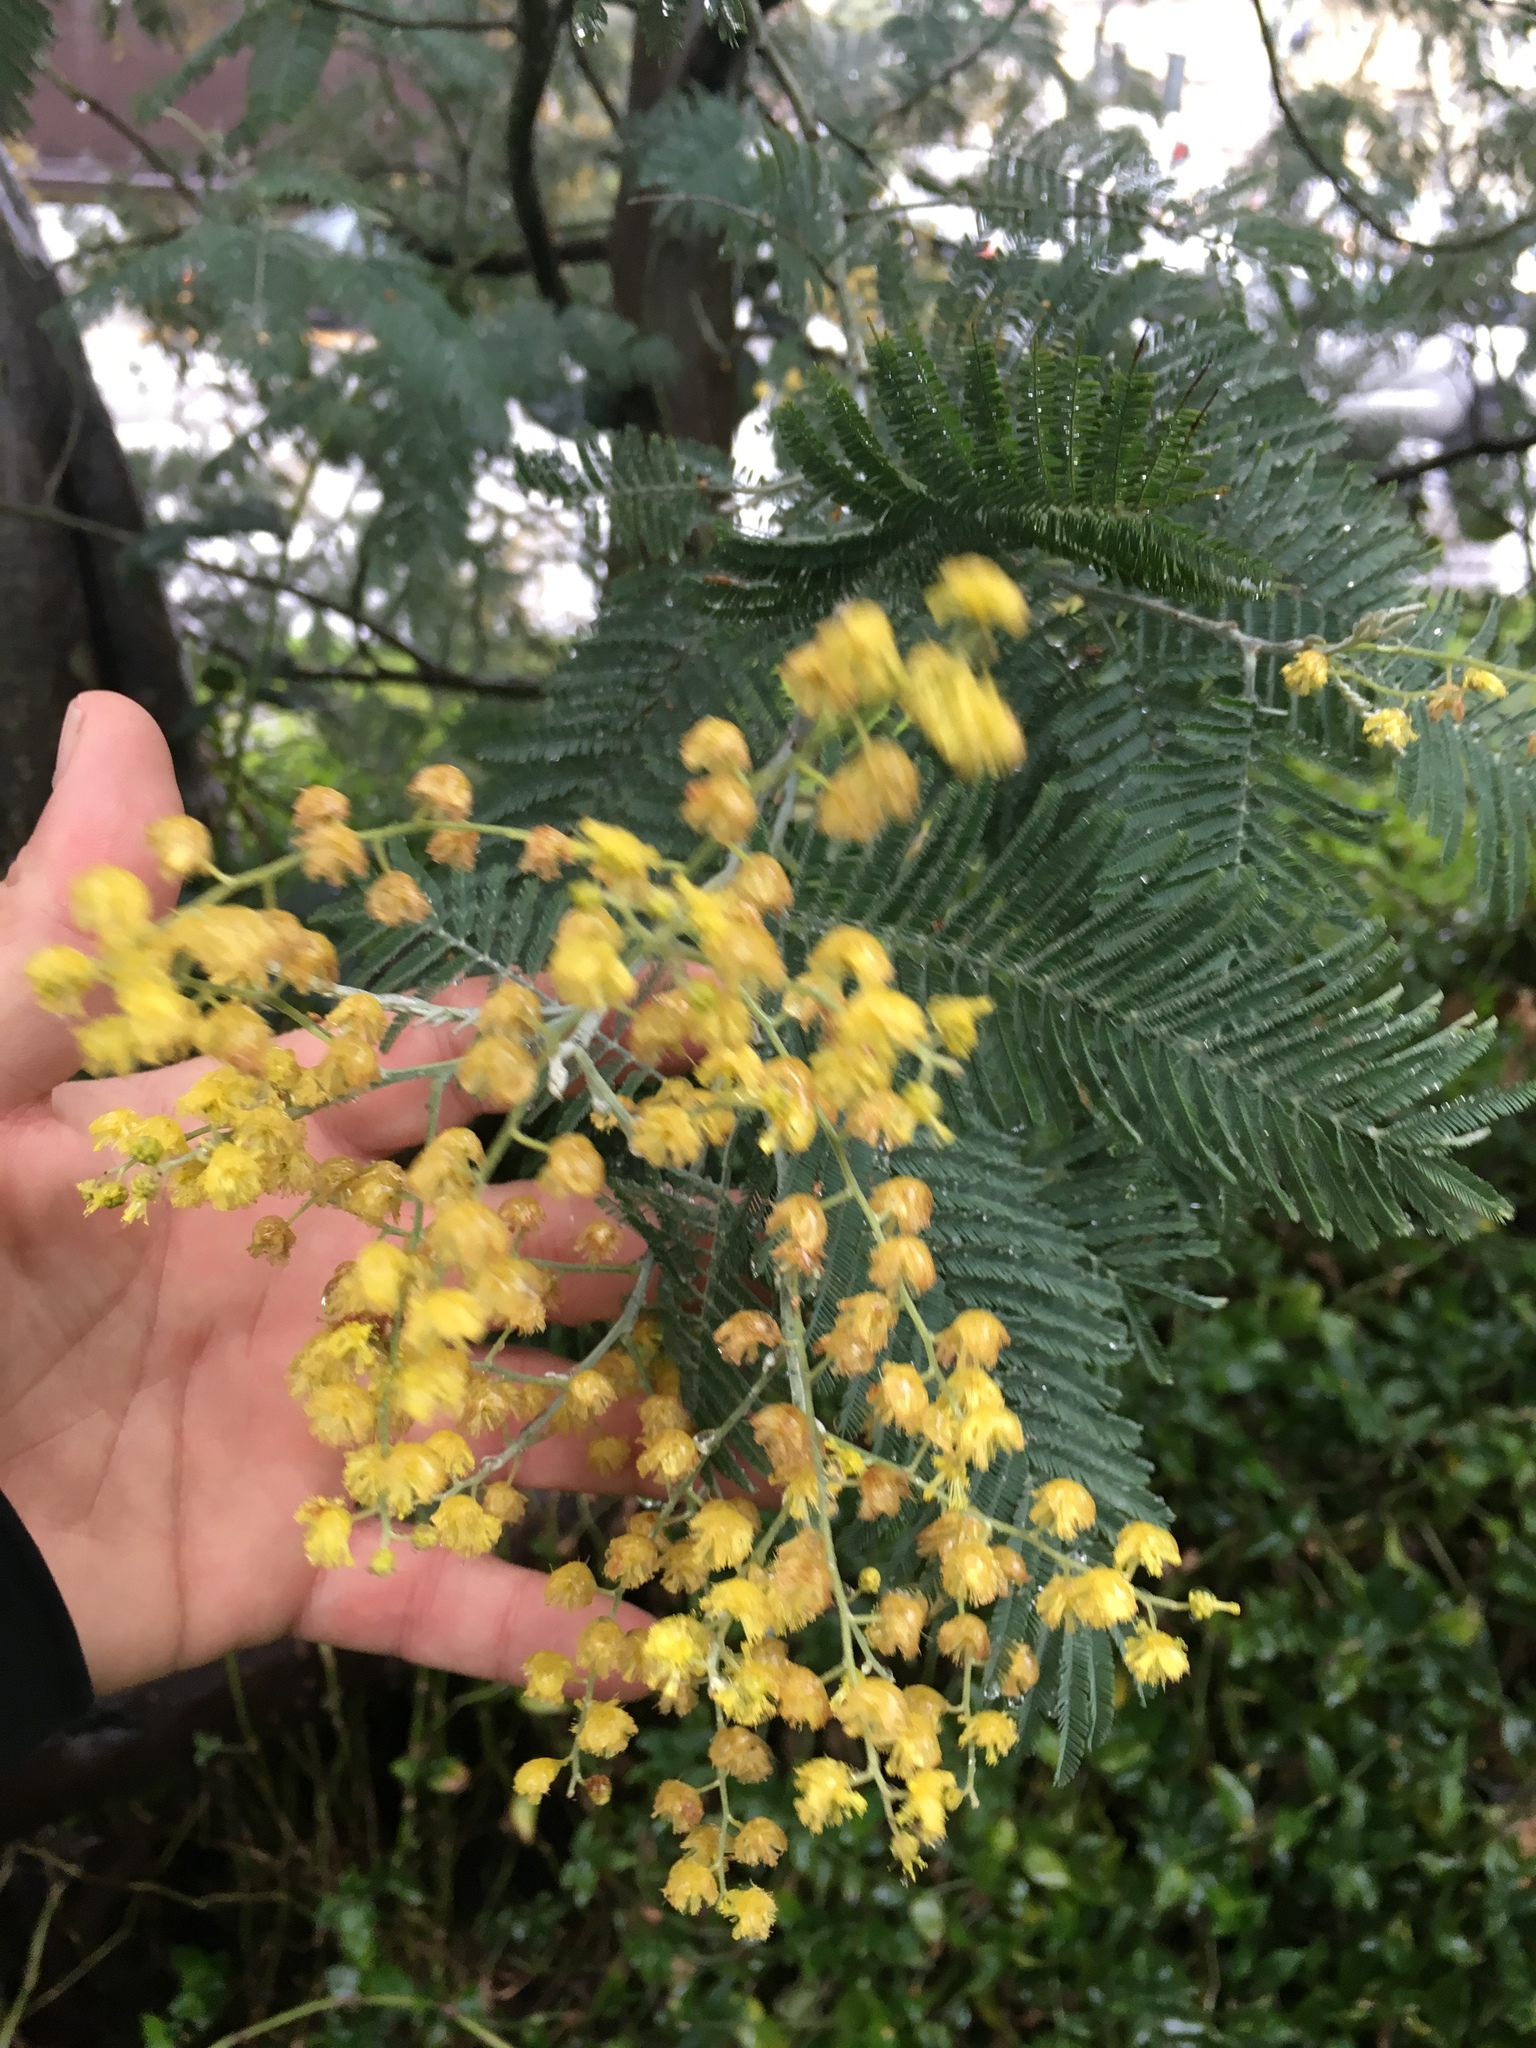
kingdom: Plantae
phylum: Tracheophyta
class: Magnoliopsida
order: Fabales
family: Fabaceae
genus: Acacia
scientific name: Acacia dealbata
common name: Silver wattle
